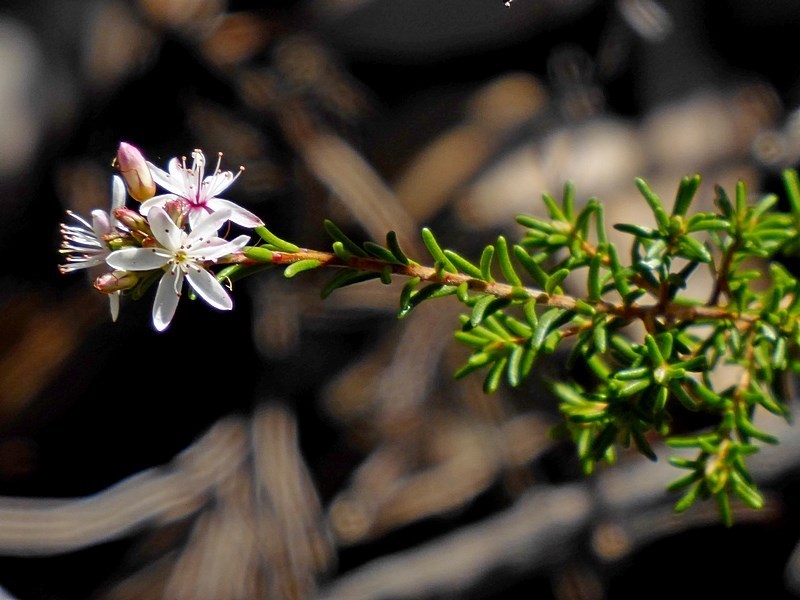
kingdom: Plantae
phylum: Tracheophyta
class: Magnoliopsida
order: Myrtales
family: Myrtaceae
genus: Calytrix
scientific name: Calytrix tetragona
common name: Common fringe myrtle
